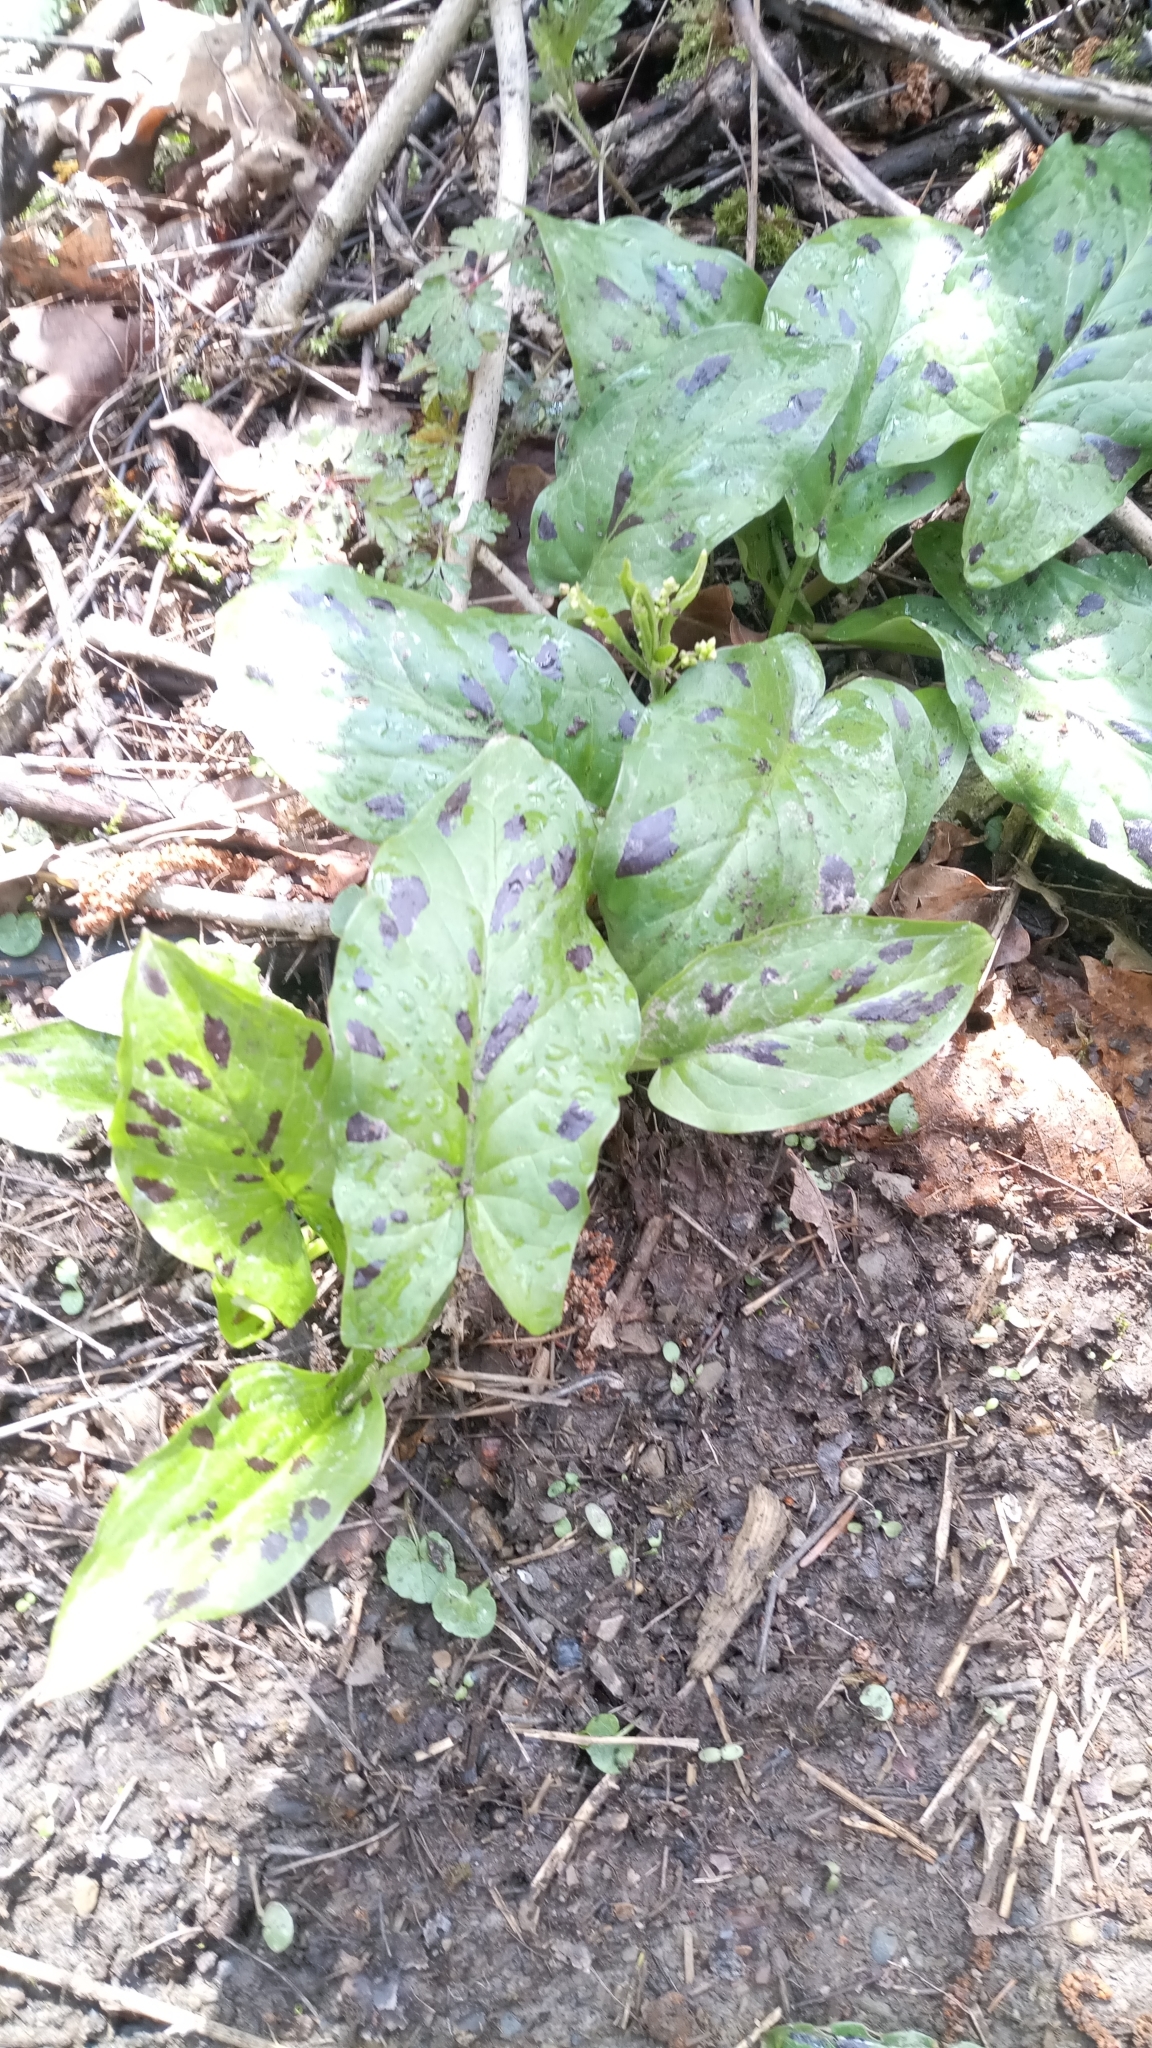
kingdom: Plantae
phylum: Tracheophyta
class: Liliopsida
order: Alismatales
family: Araceae
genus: Arum
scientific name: Arum maculatum
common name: Lords-and-ladies
